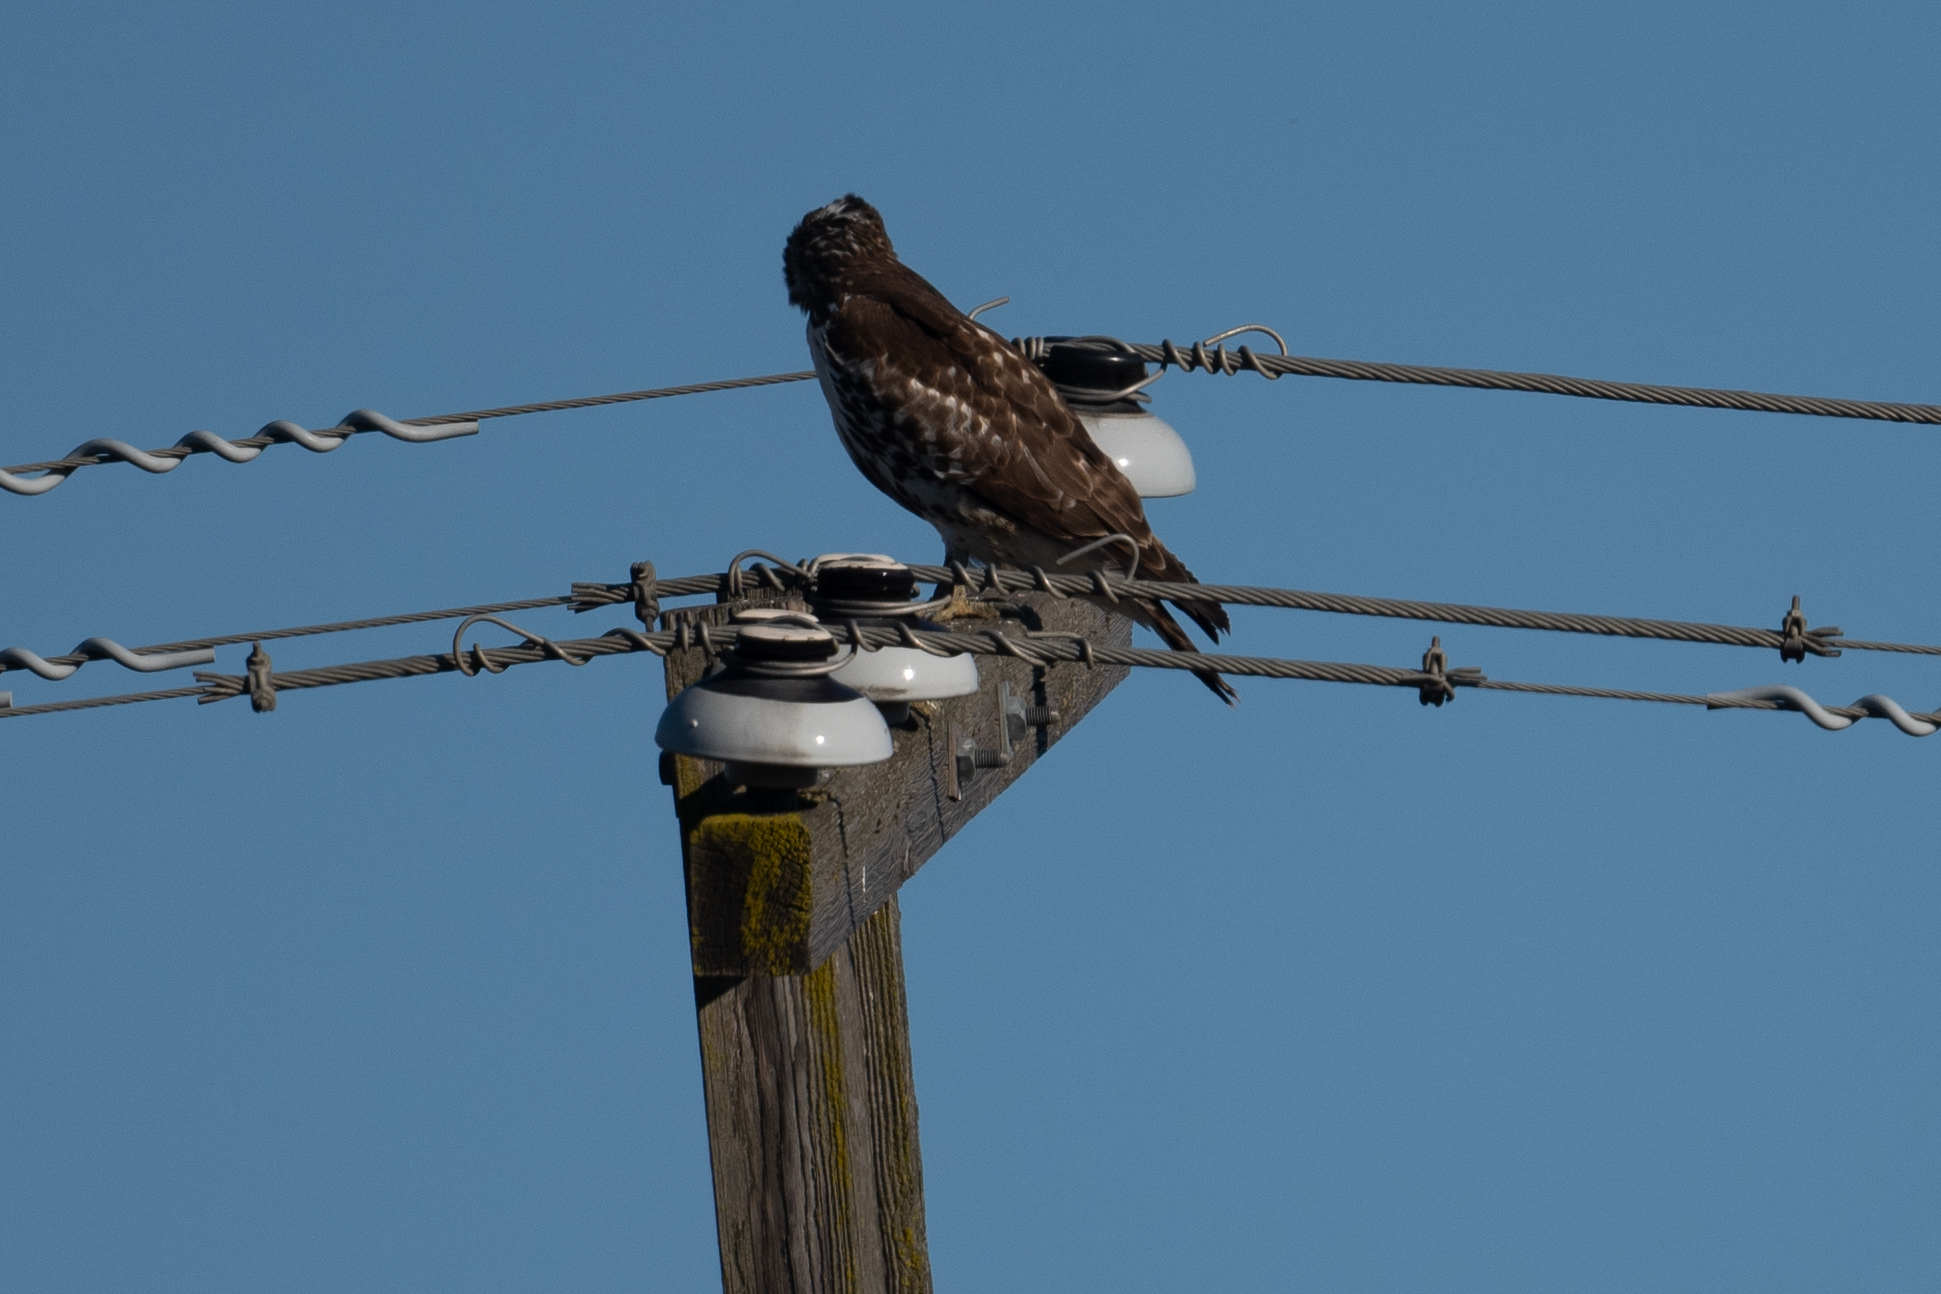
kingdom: Animalia
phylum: Chordata
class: Aves
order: Accipitriformes
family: Accipitridae
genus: Buteo
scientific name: Buteo jamaicensis
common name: Red-tailed hawk
